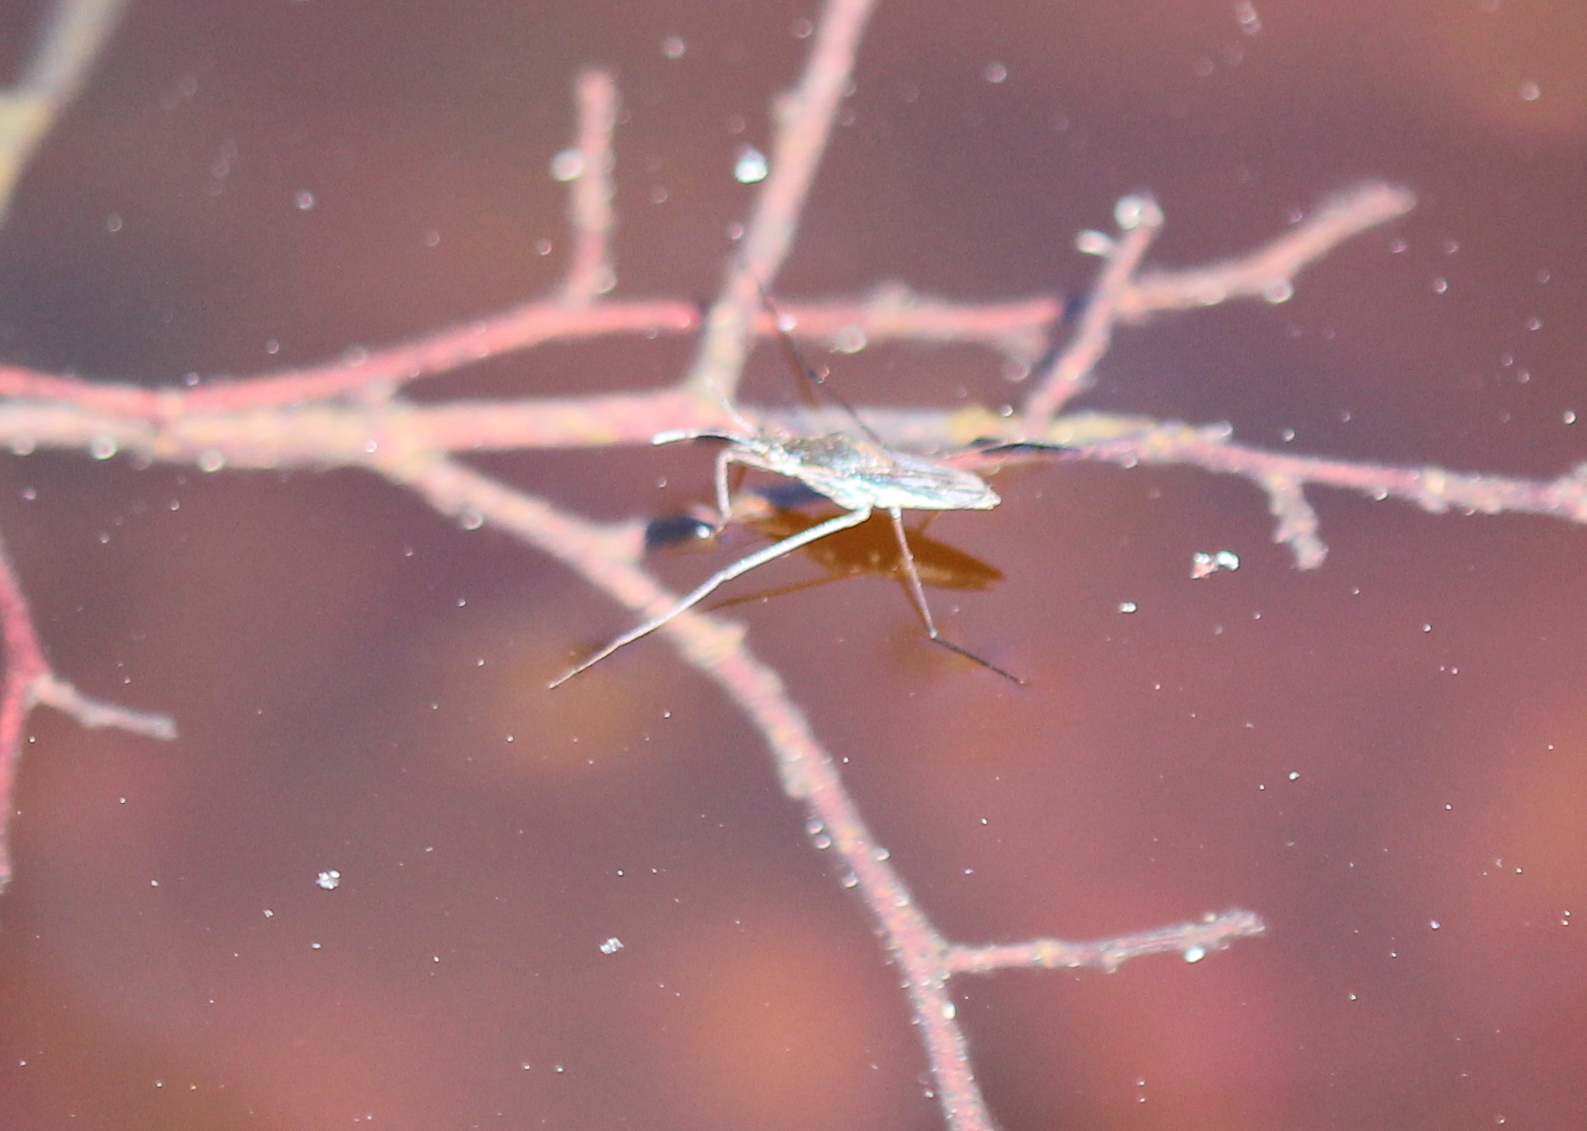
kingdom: Animalia
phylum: Arthropoda
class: Insecta
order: Hemiptera
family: Gerridae
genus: Gerris
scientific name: Gerris
